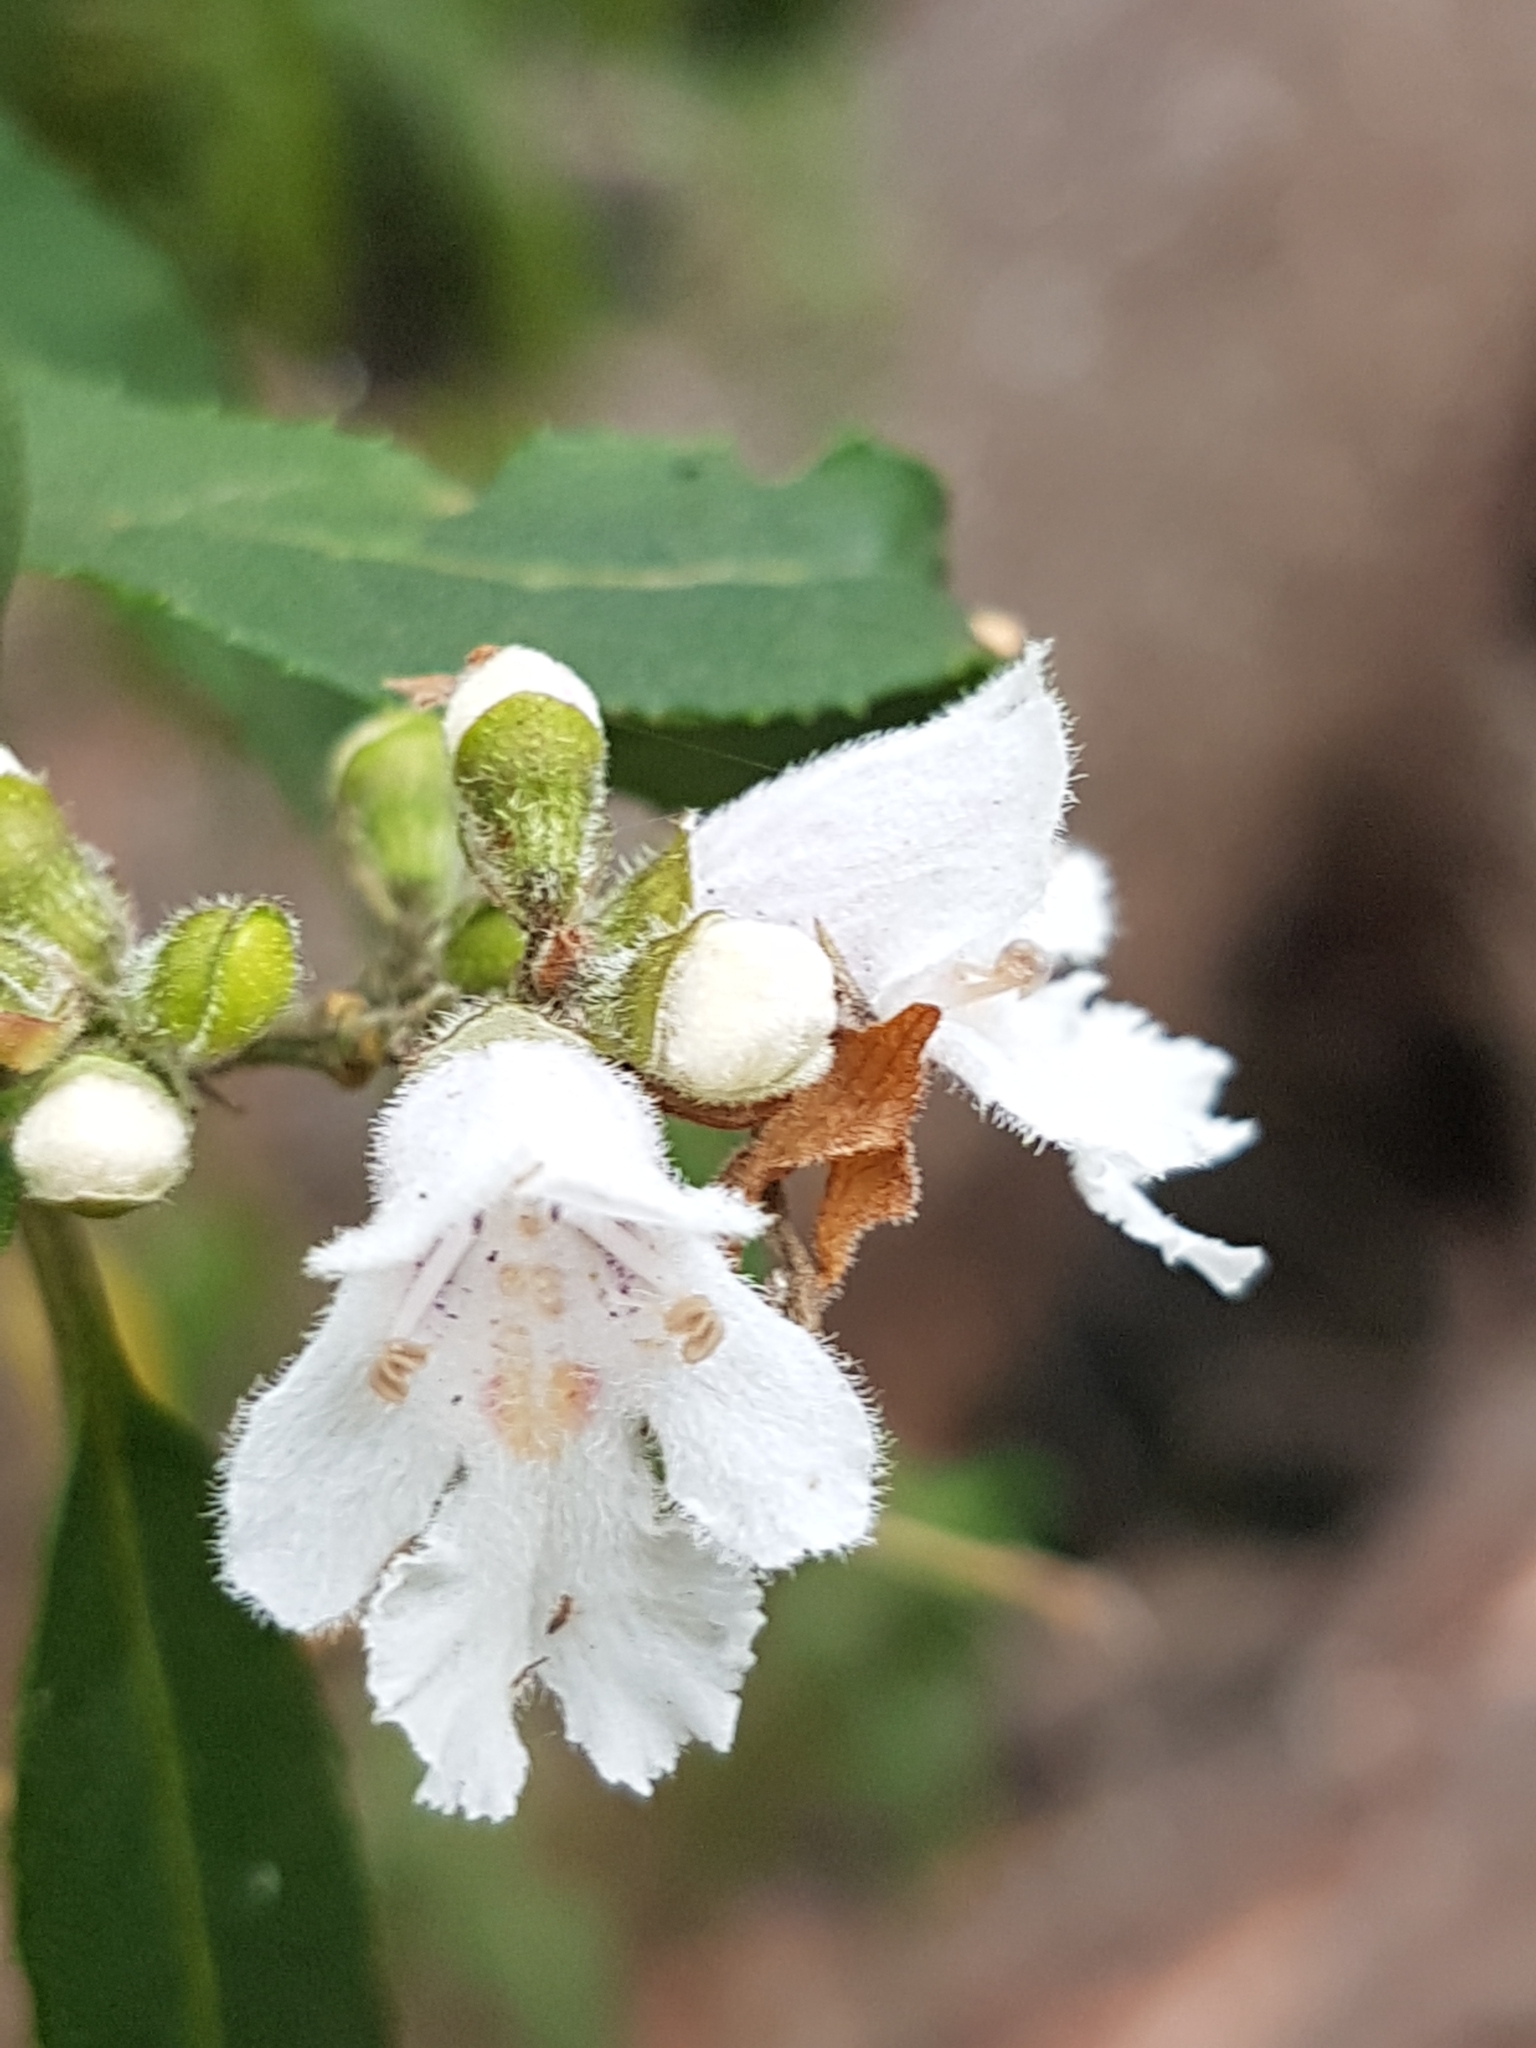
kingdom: Plantae
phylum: Tracheophyta
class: Magnoliopsida
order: Lamiales
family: Lamiaceae
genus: Prostanthera
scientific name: Prostanthera lasianthos
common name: Mountain-lilac
